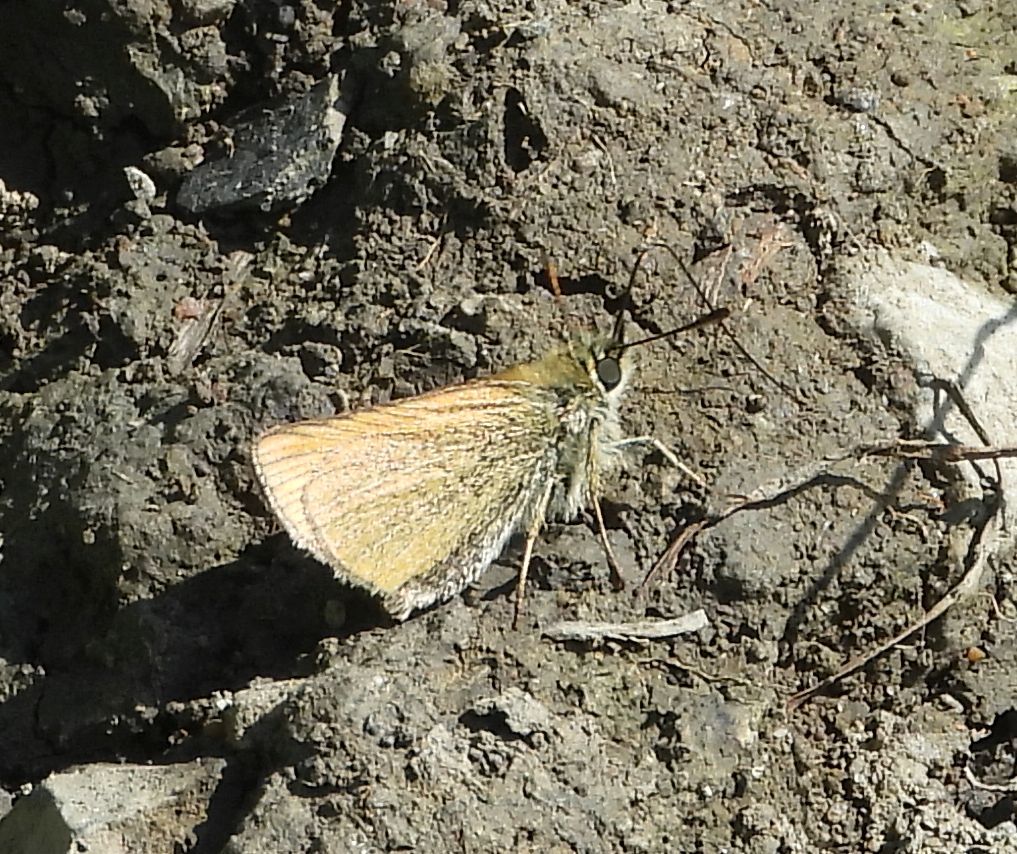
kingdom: Animalia
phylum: Arthropoda
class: Insecta
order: Lepidoptera
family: Hesperiidae
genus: Thymelicus
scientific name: Thymelicus lineola
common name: Essex skipper
